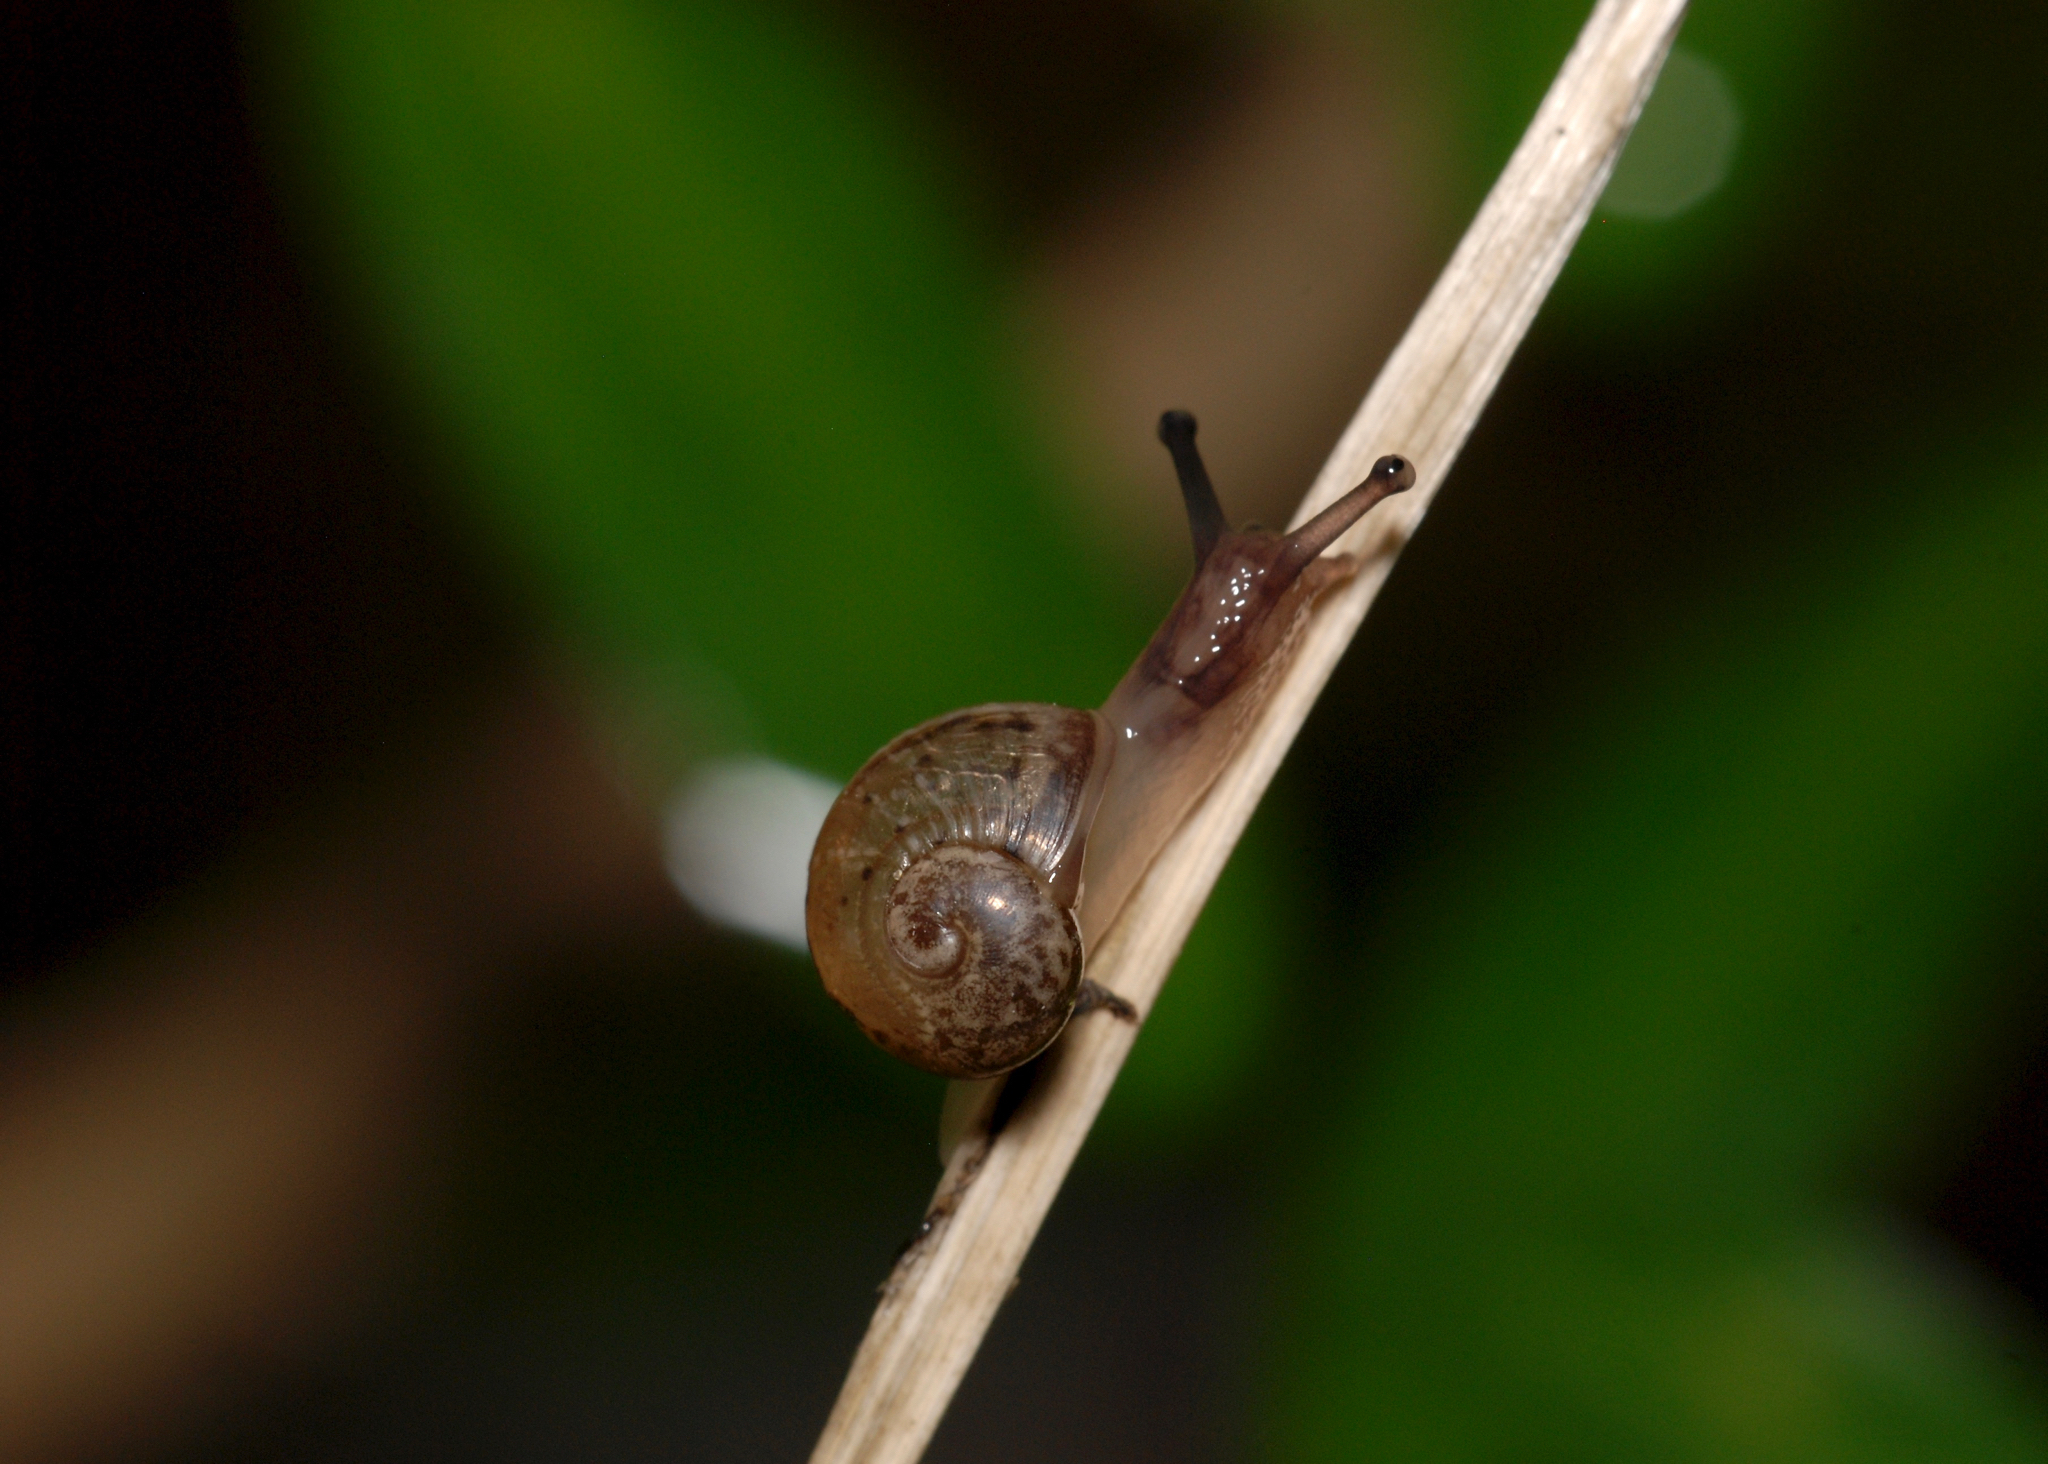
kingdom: Animalia
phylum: Mollusca
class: Gastropoda
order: Stylommatophora
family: Helicidae
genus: Cornu
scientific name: Cornu aspersum
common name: Brown garden snail
